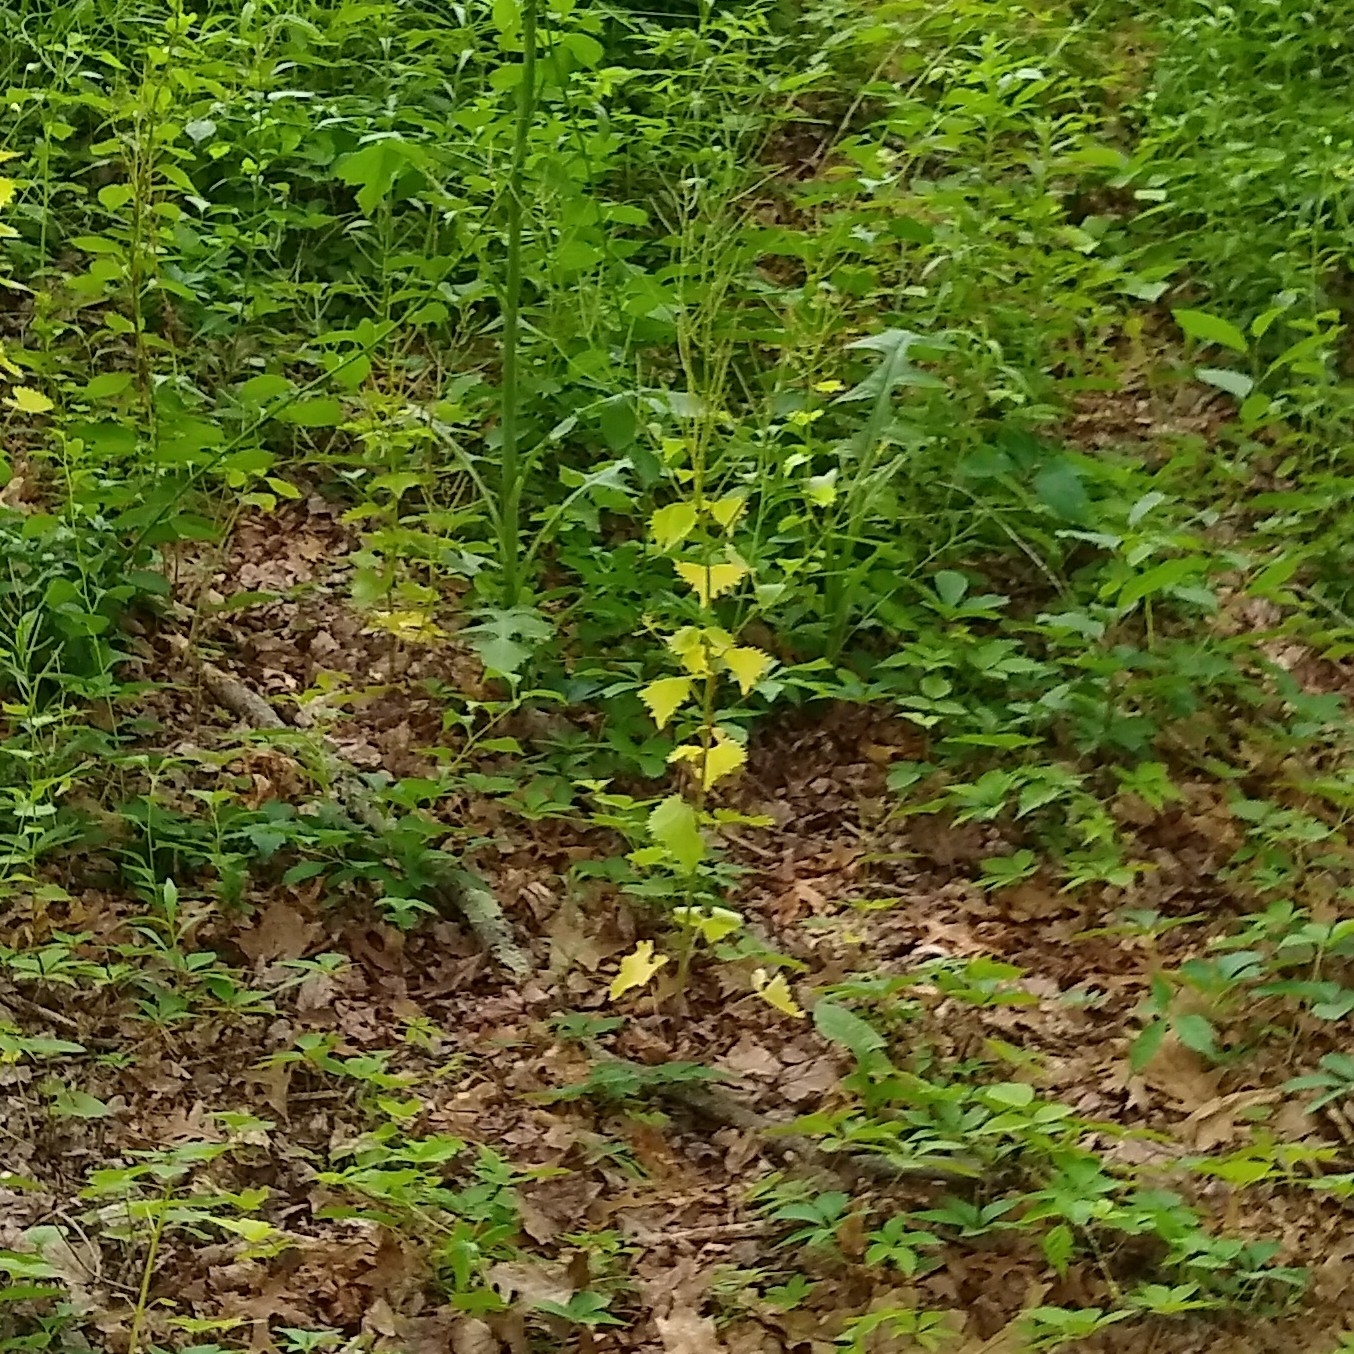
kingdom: Plantae
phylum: Tracheophyta
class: Magnoliopsida
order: Brassicales
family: Brassicaceae
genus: Alliaria
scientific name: Alliaria petiolata
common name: Garlic mustard
